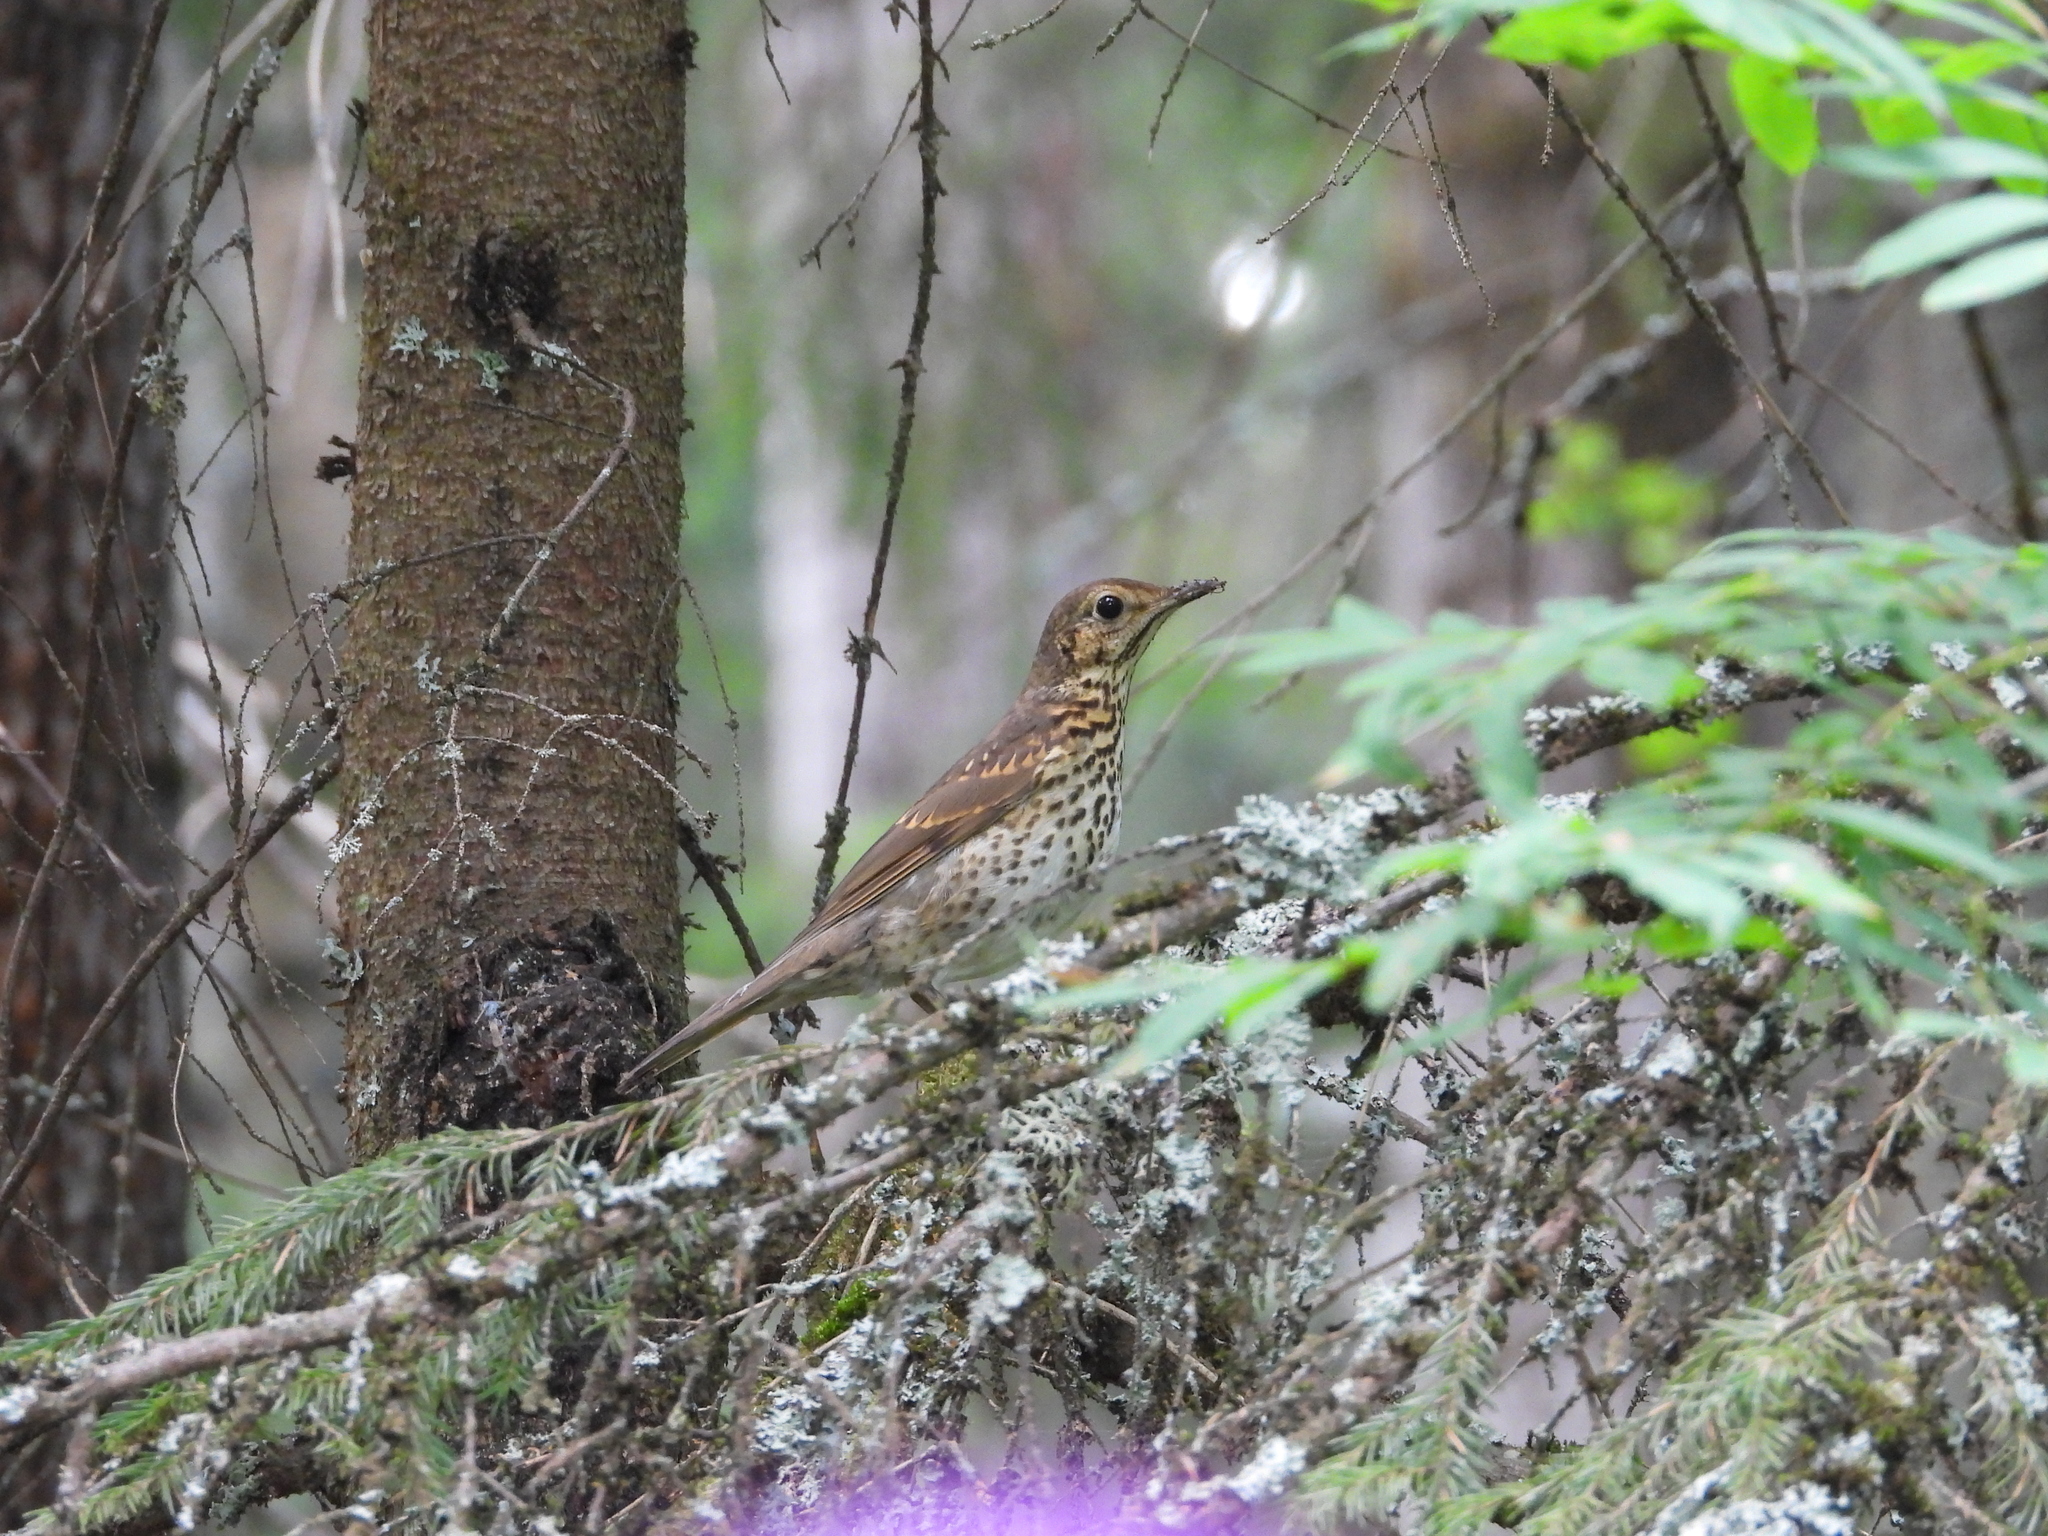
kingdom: Animalia
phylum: Chordata
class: Aves
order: Passeriformes
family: Turdidae
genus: Turdus
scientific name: Turdus philomelos
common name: Song thrush
